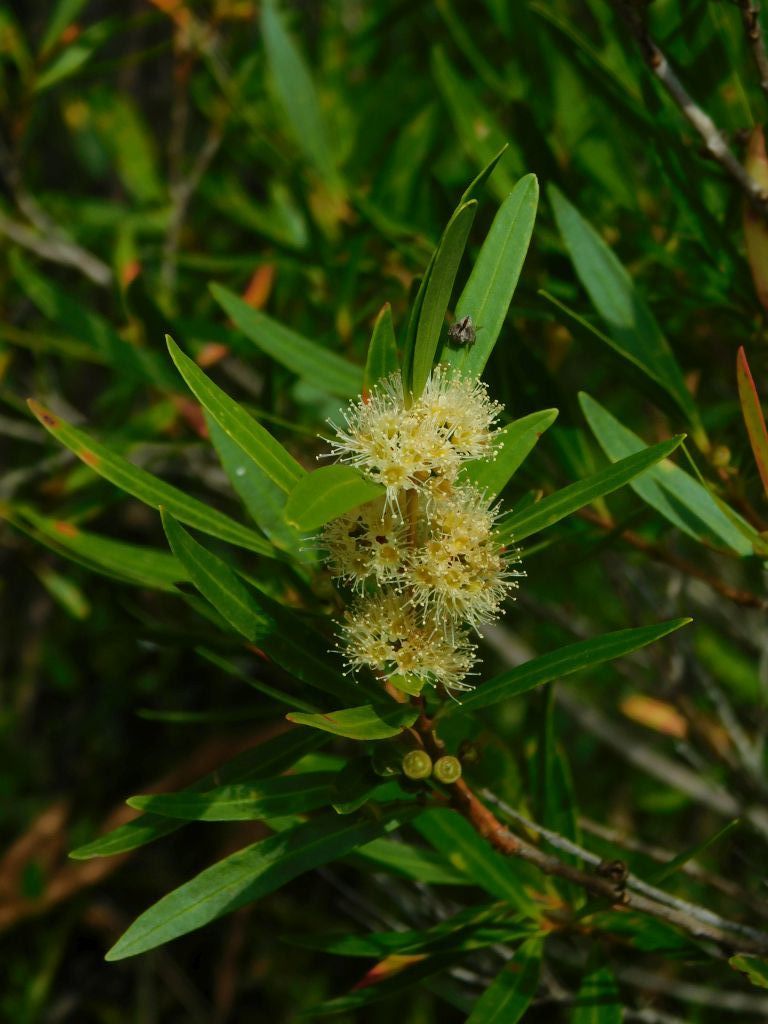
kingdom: Plantae
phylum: Tracheophyta
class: Magnoliopsida
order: Myrtales
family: Myrtaceae
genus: Callistemon
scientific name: Callistemon lanceolatus
